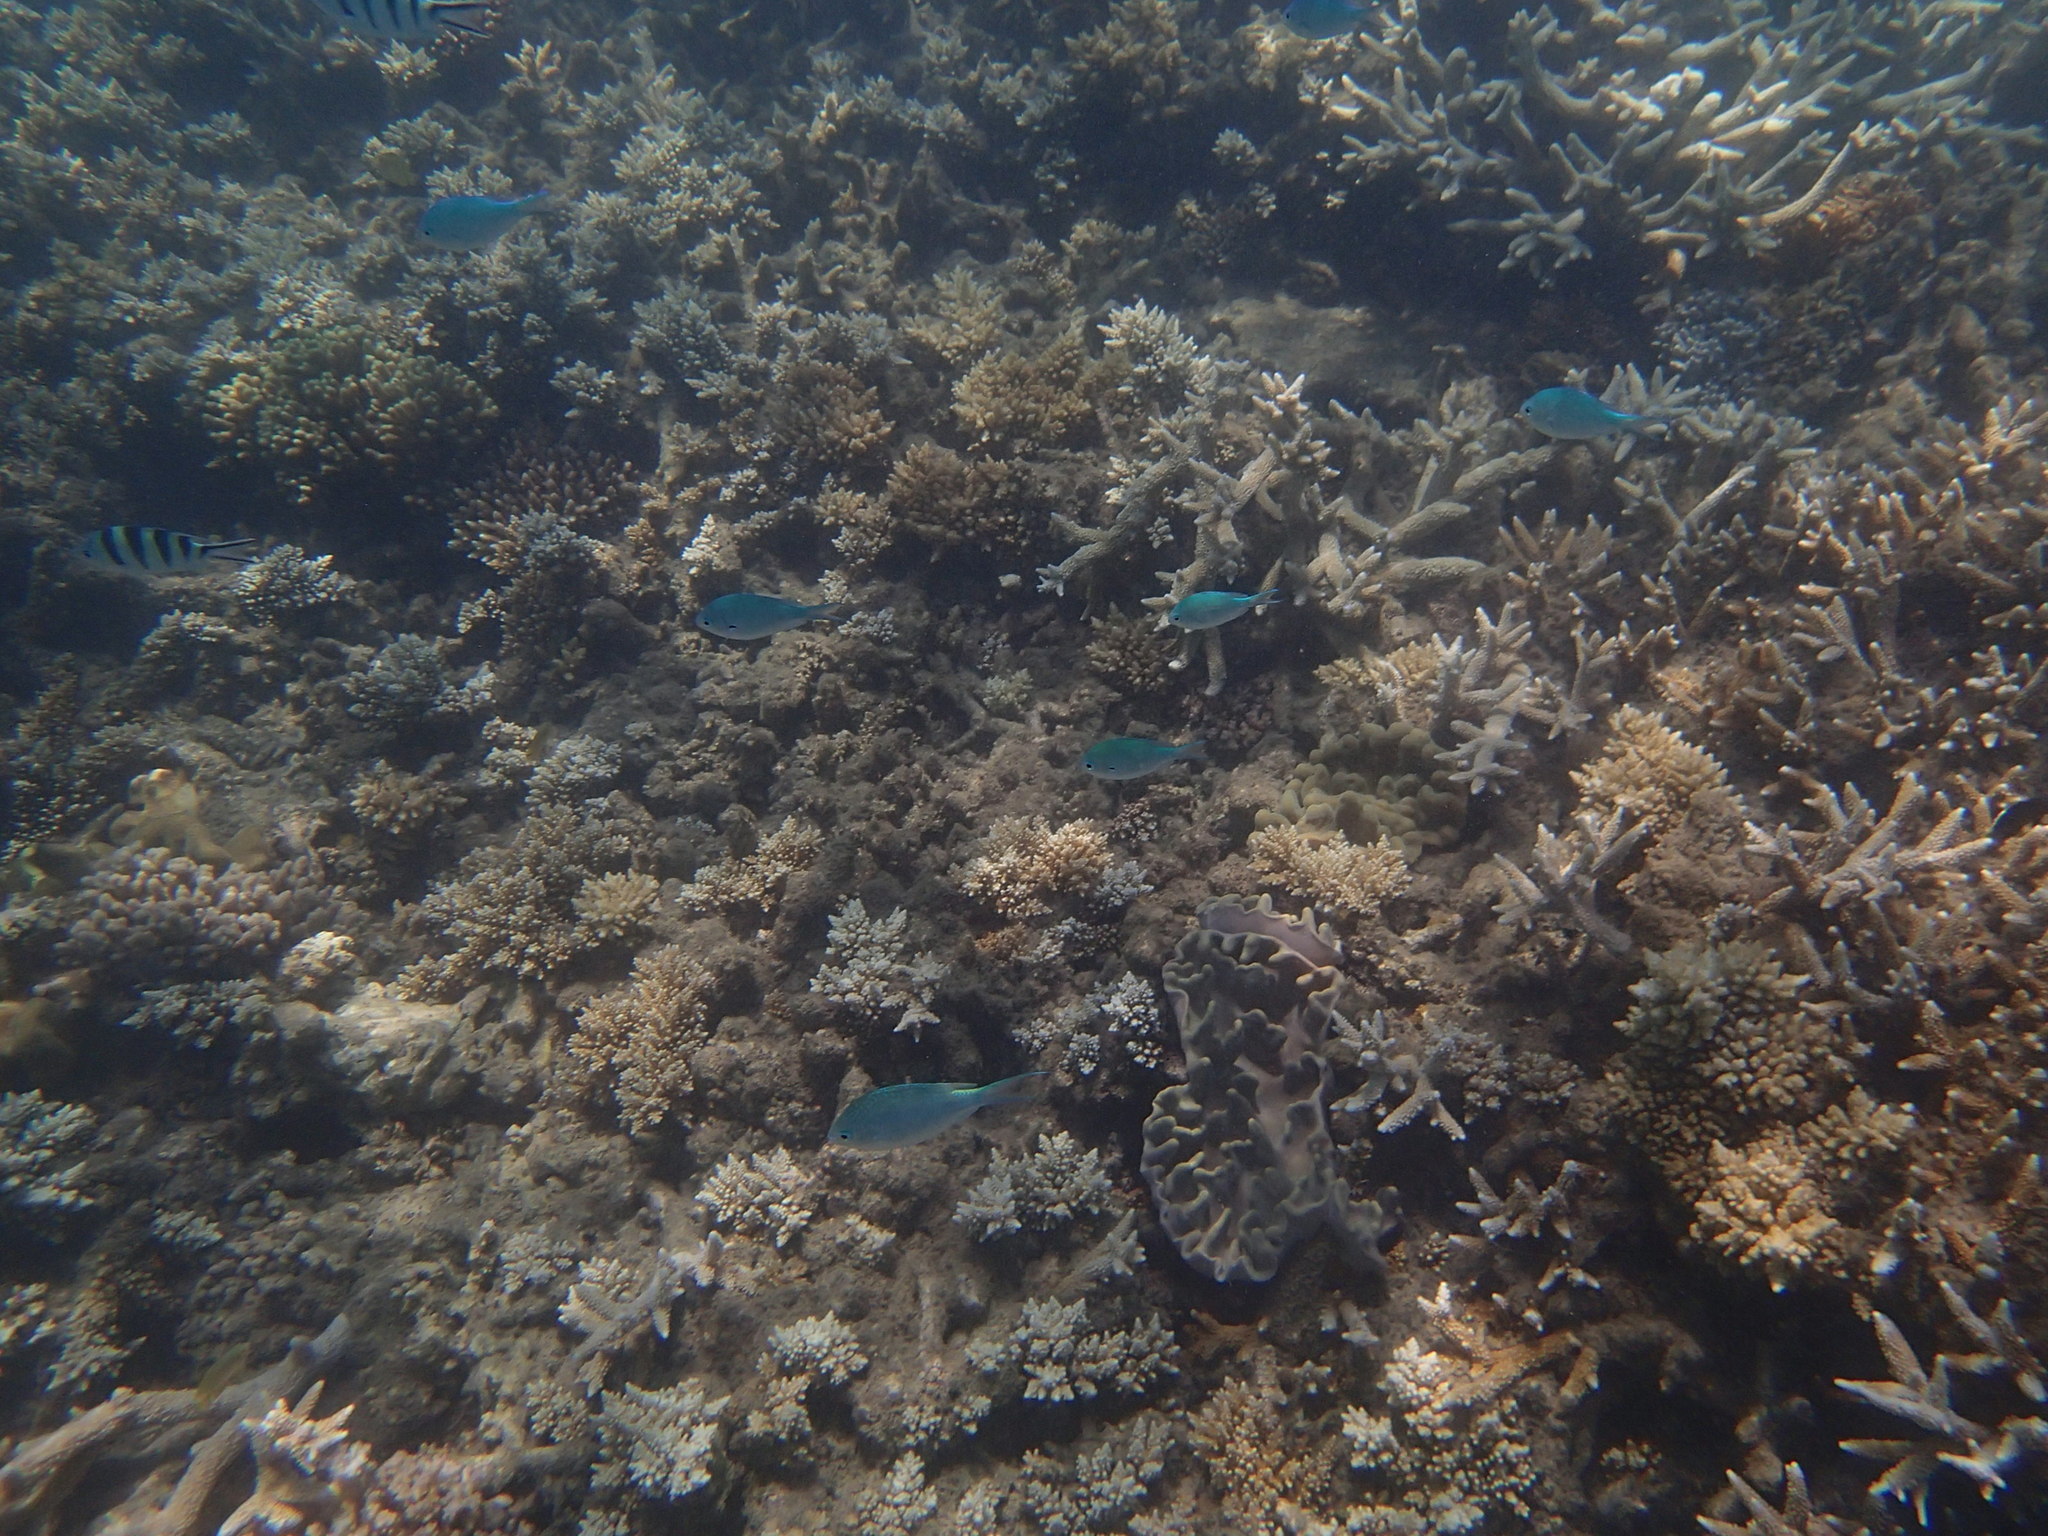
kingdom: Animalia
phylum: Chordata
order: Perciformes
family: Pomacentridae
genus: Chromis
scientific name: Chromis atripectoralis
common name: Black-axil chromis
